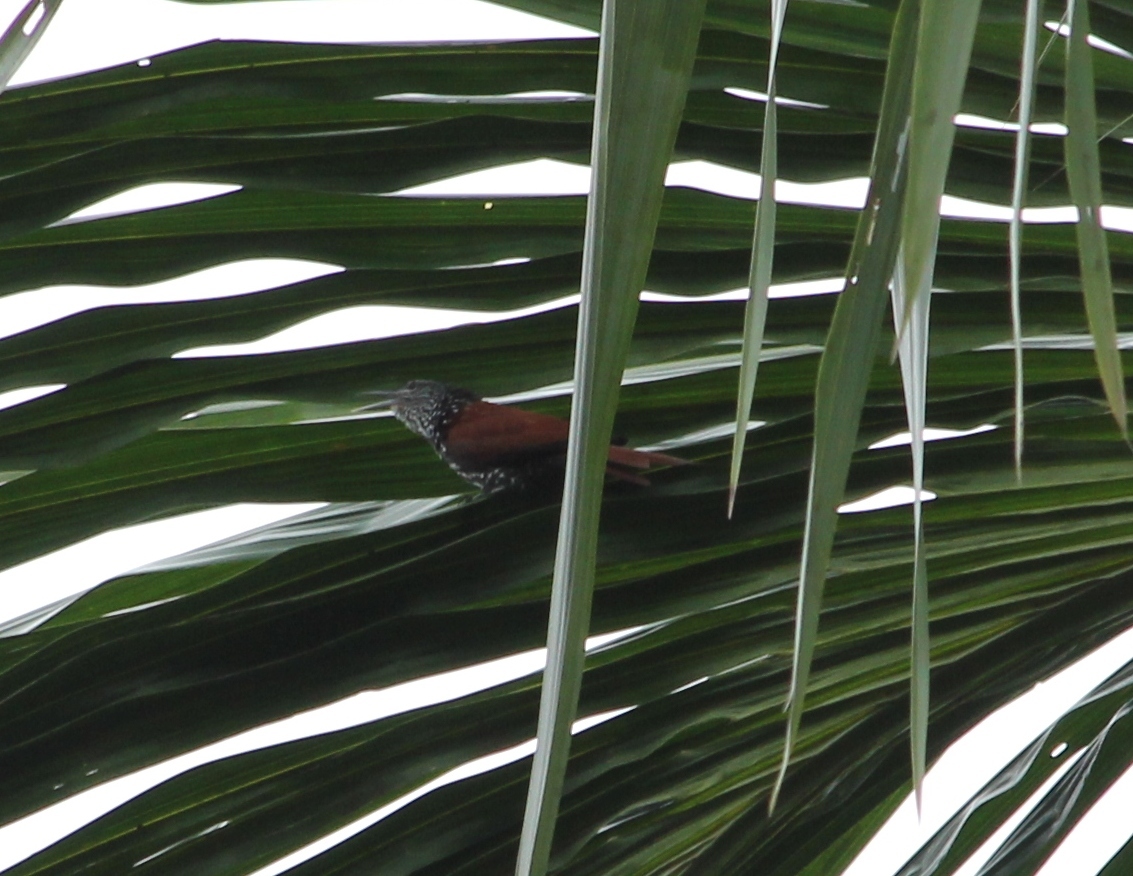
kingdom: Animalia
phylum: Chordata
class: Aves
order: Passeriformes
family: Furnariidae
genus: Berlepschia
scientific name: Berlepschia rikeri
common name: Point-tailed palmcreeper
